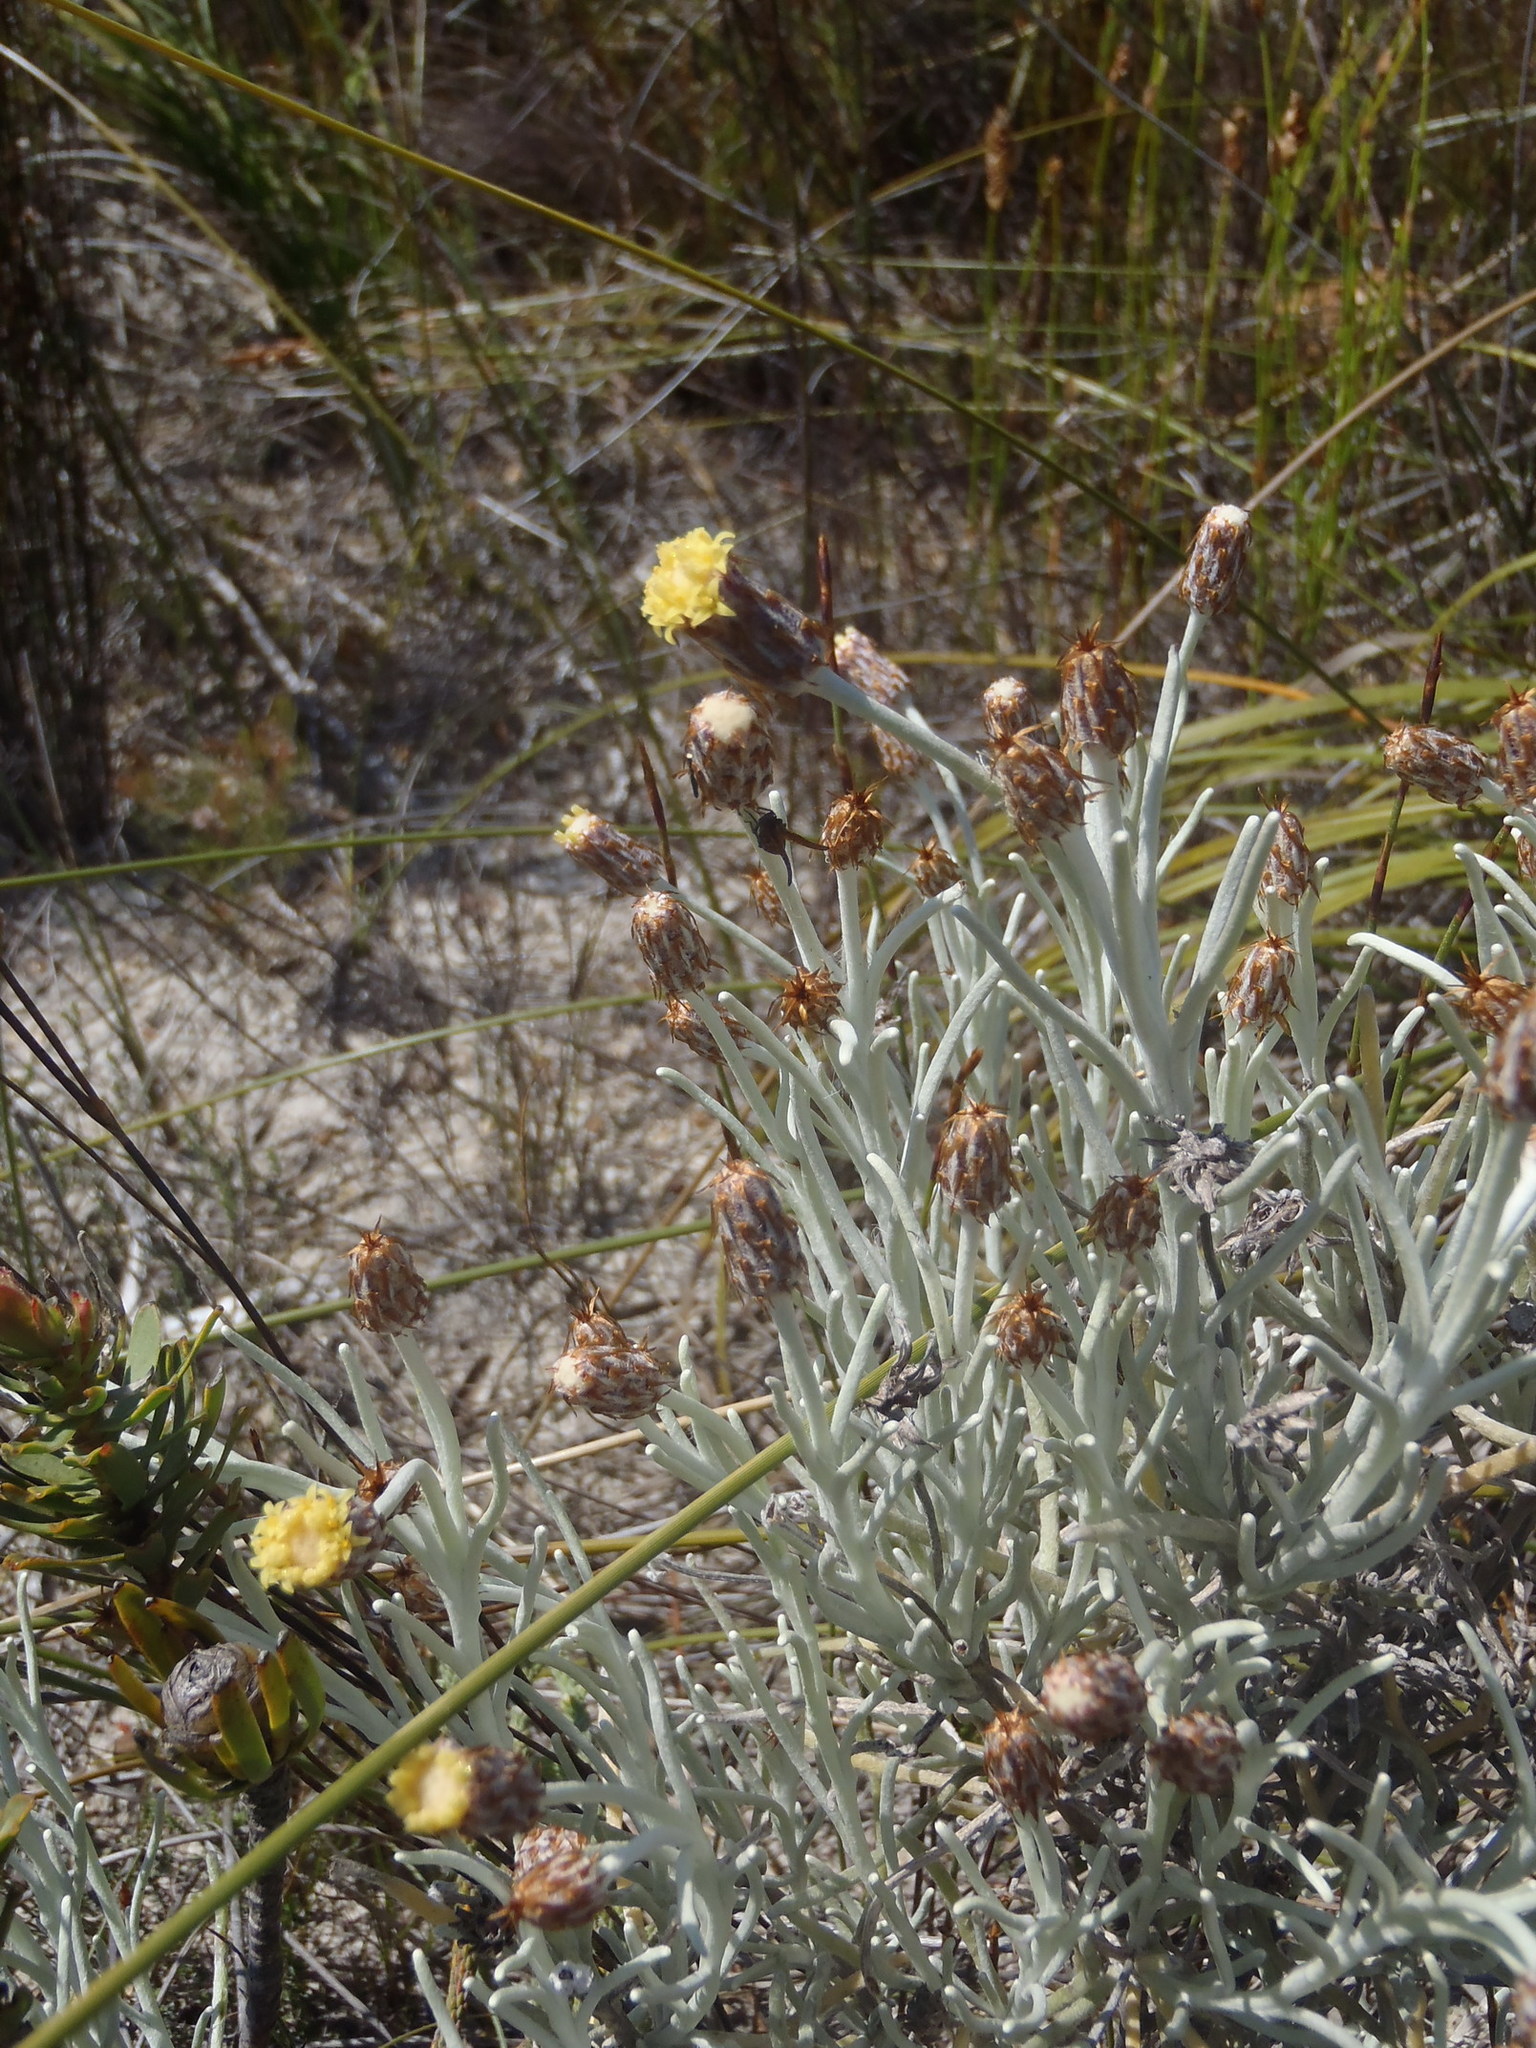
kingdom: Plantae
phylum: Tracheophyta
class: Magnoliopsida
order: Asterales
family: Asteraceae
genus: Syncarpha
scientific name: Syncarpha gnaphaloides
